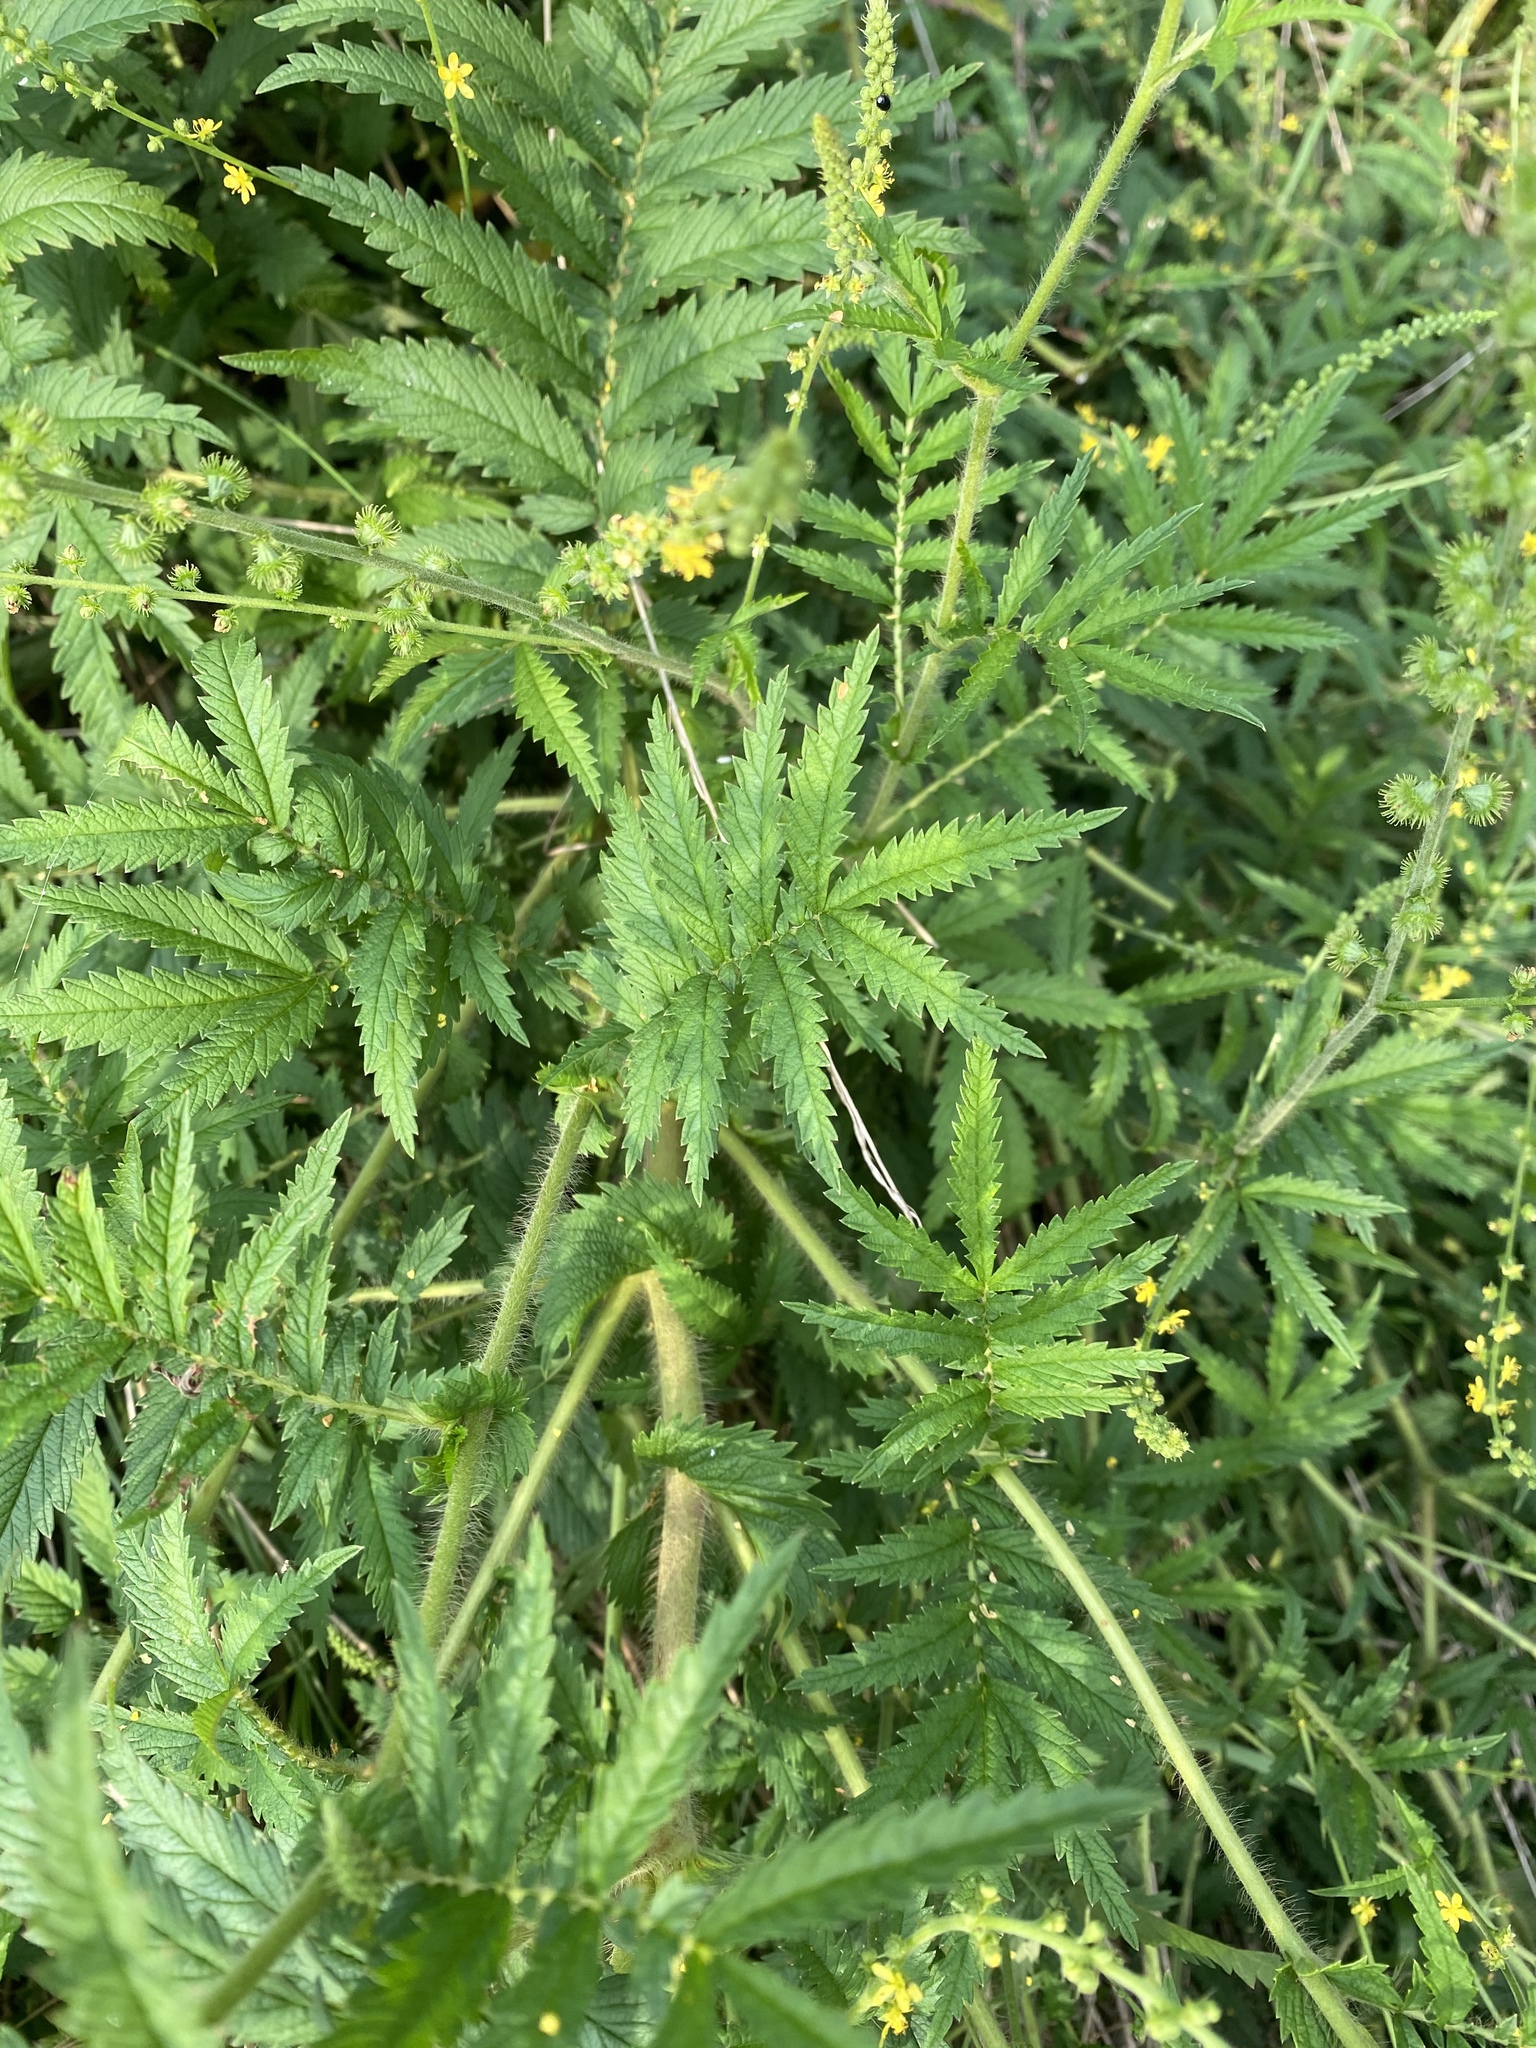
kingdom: Plantae
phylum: Tracheophyta
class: Magnoliopsida
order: Rosales
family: Rosaceae
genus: Agrimonia
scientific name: Agrimonia parviflora
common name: Harvest-lice
